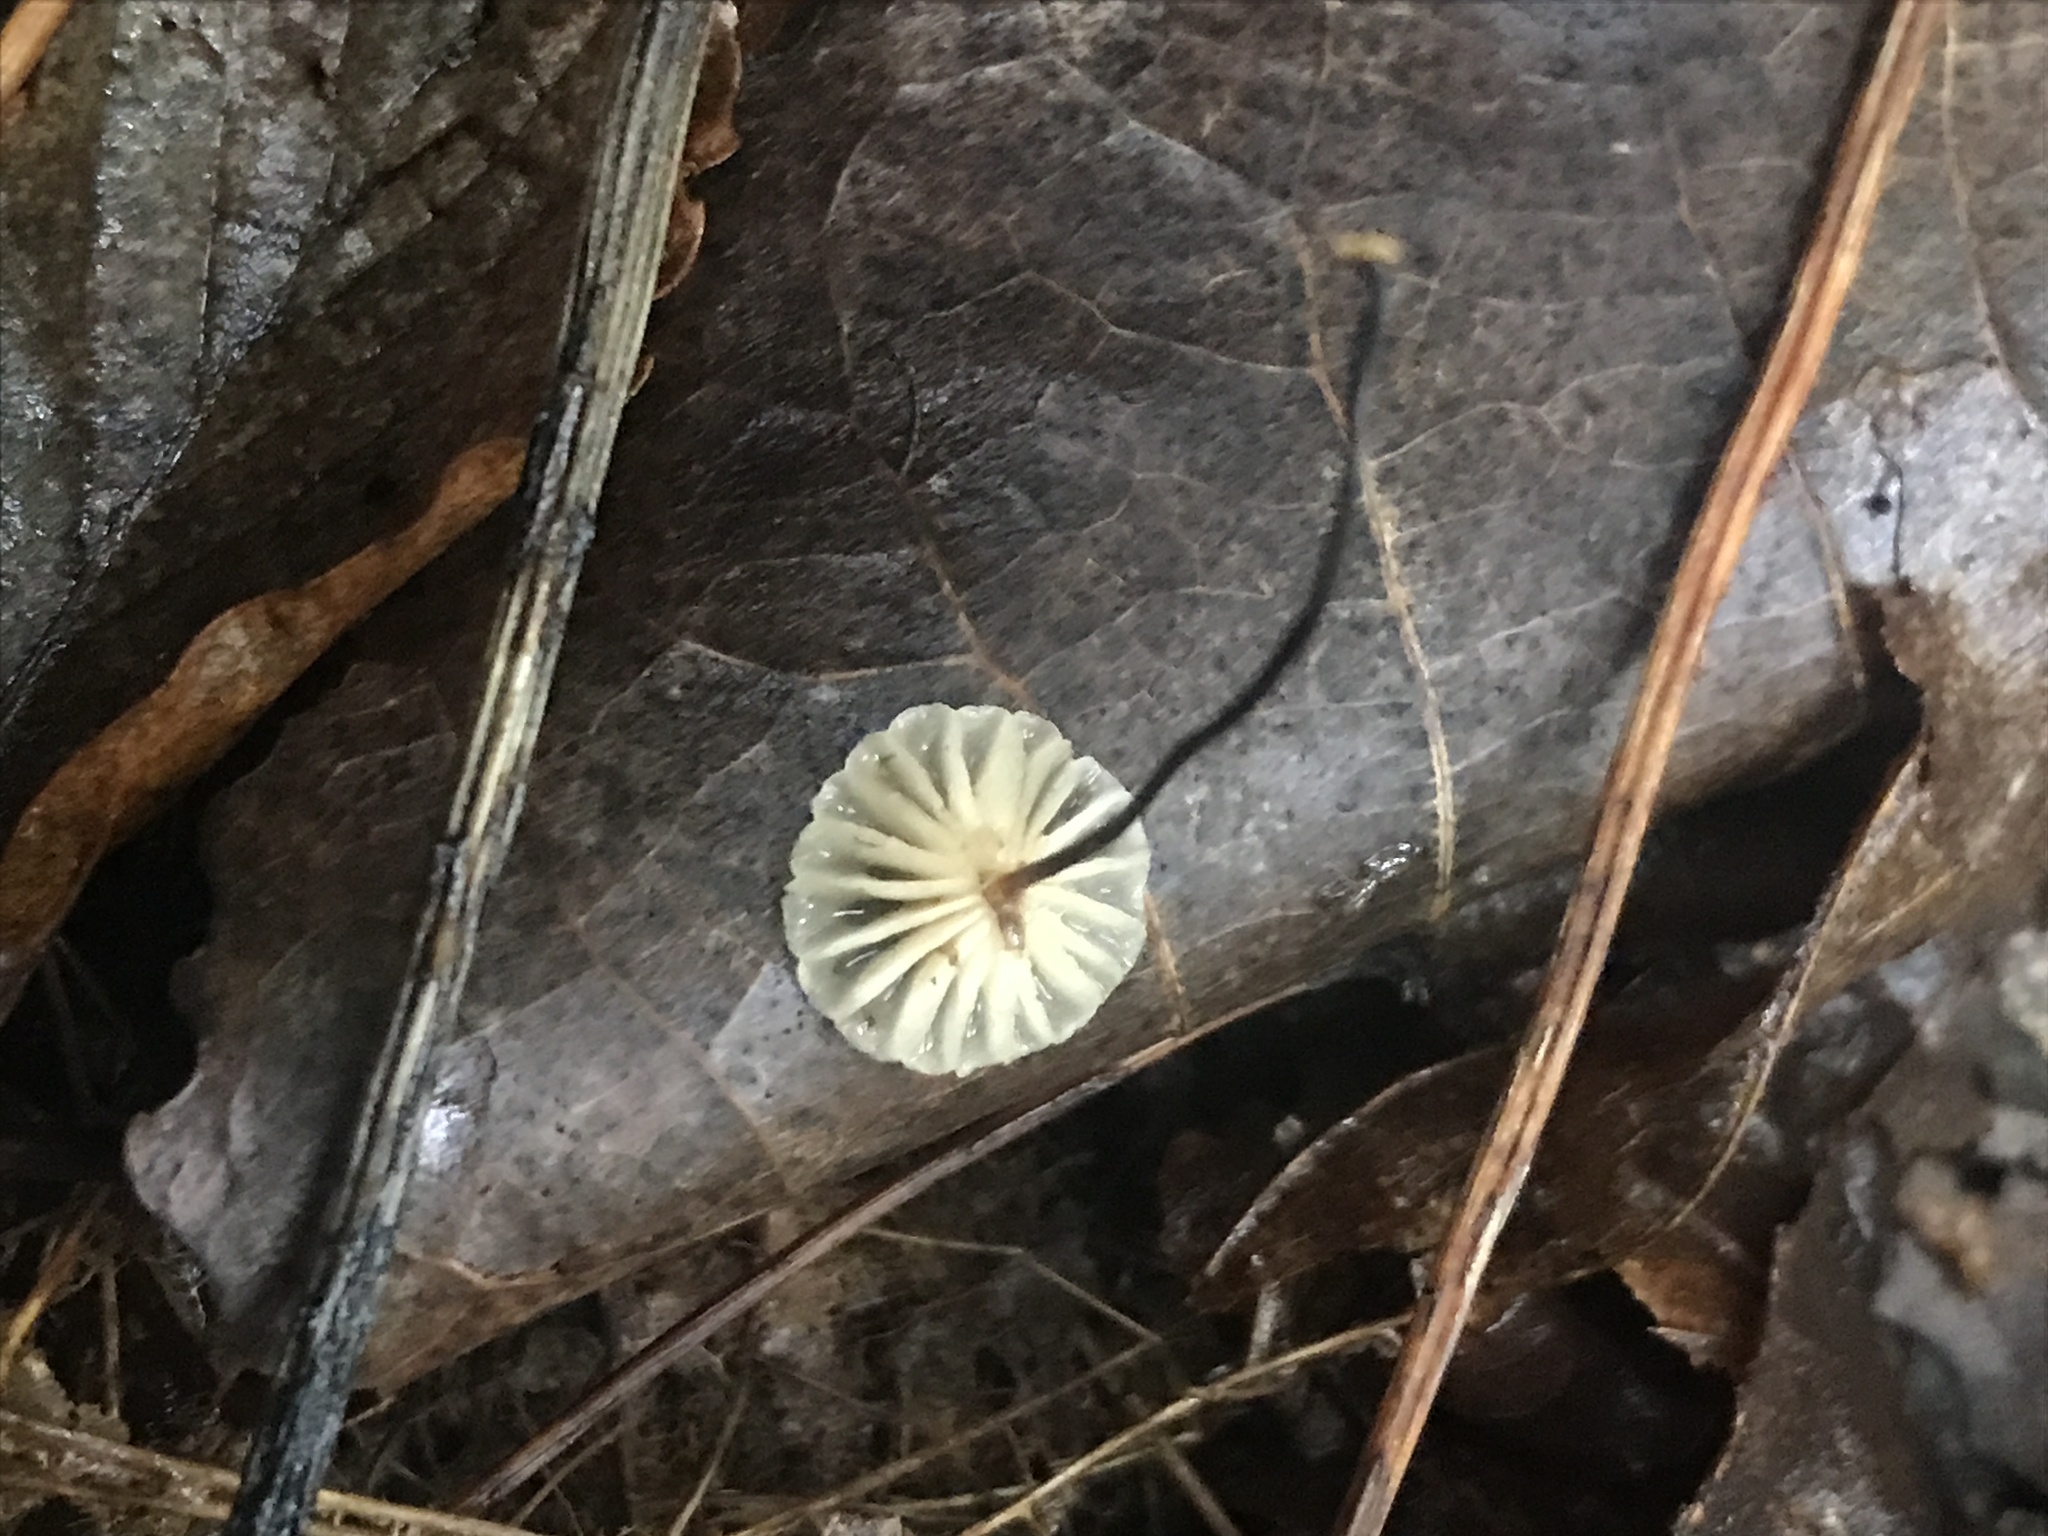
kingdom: Fungi
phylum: Basidiomycota
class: Agaricomycetes
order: Agaricales
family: Marasmiaceae
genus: Marasmius
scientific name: Marasmius capillaris
